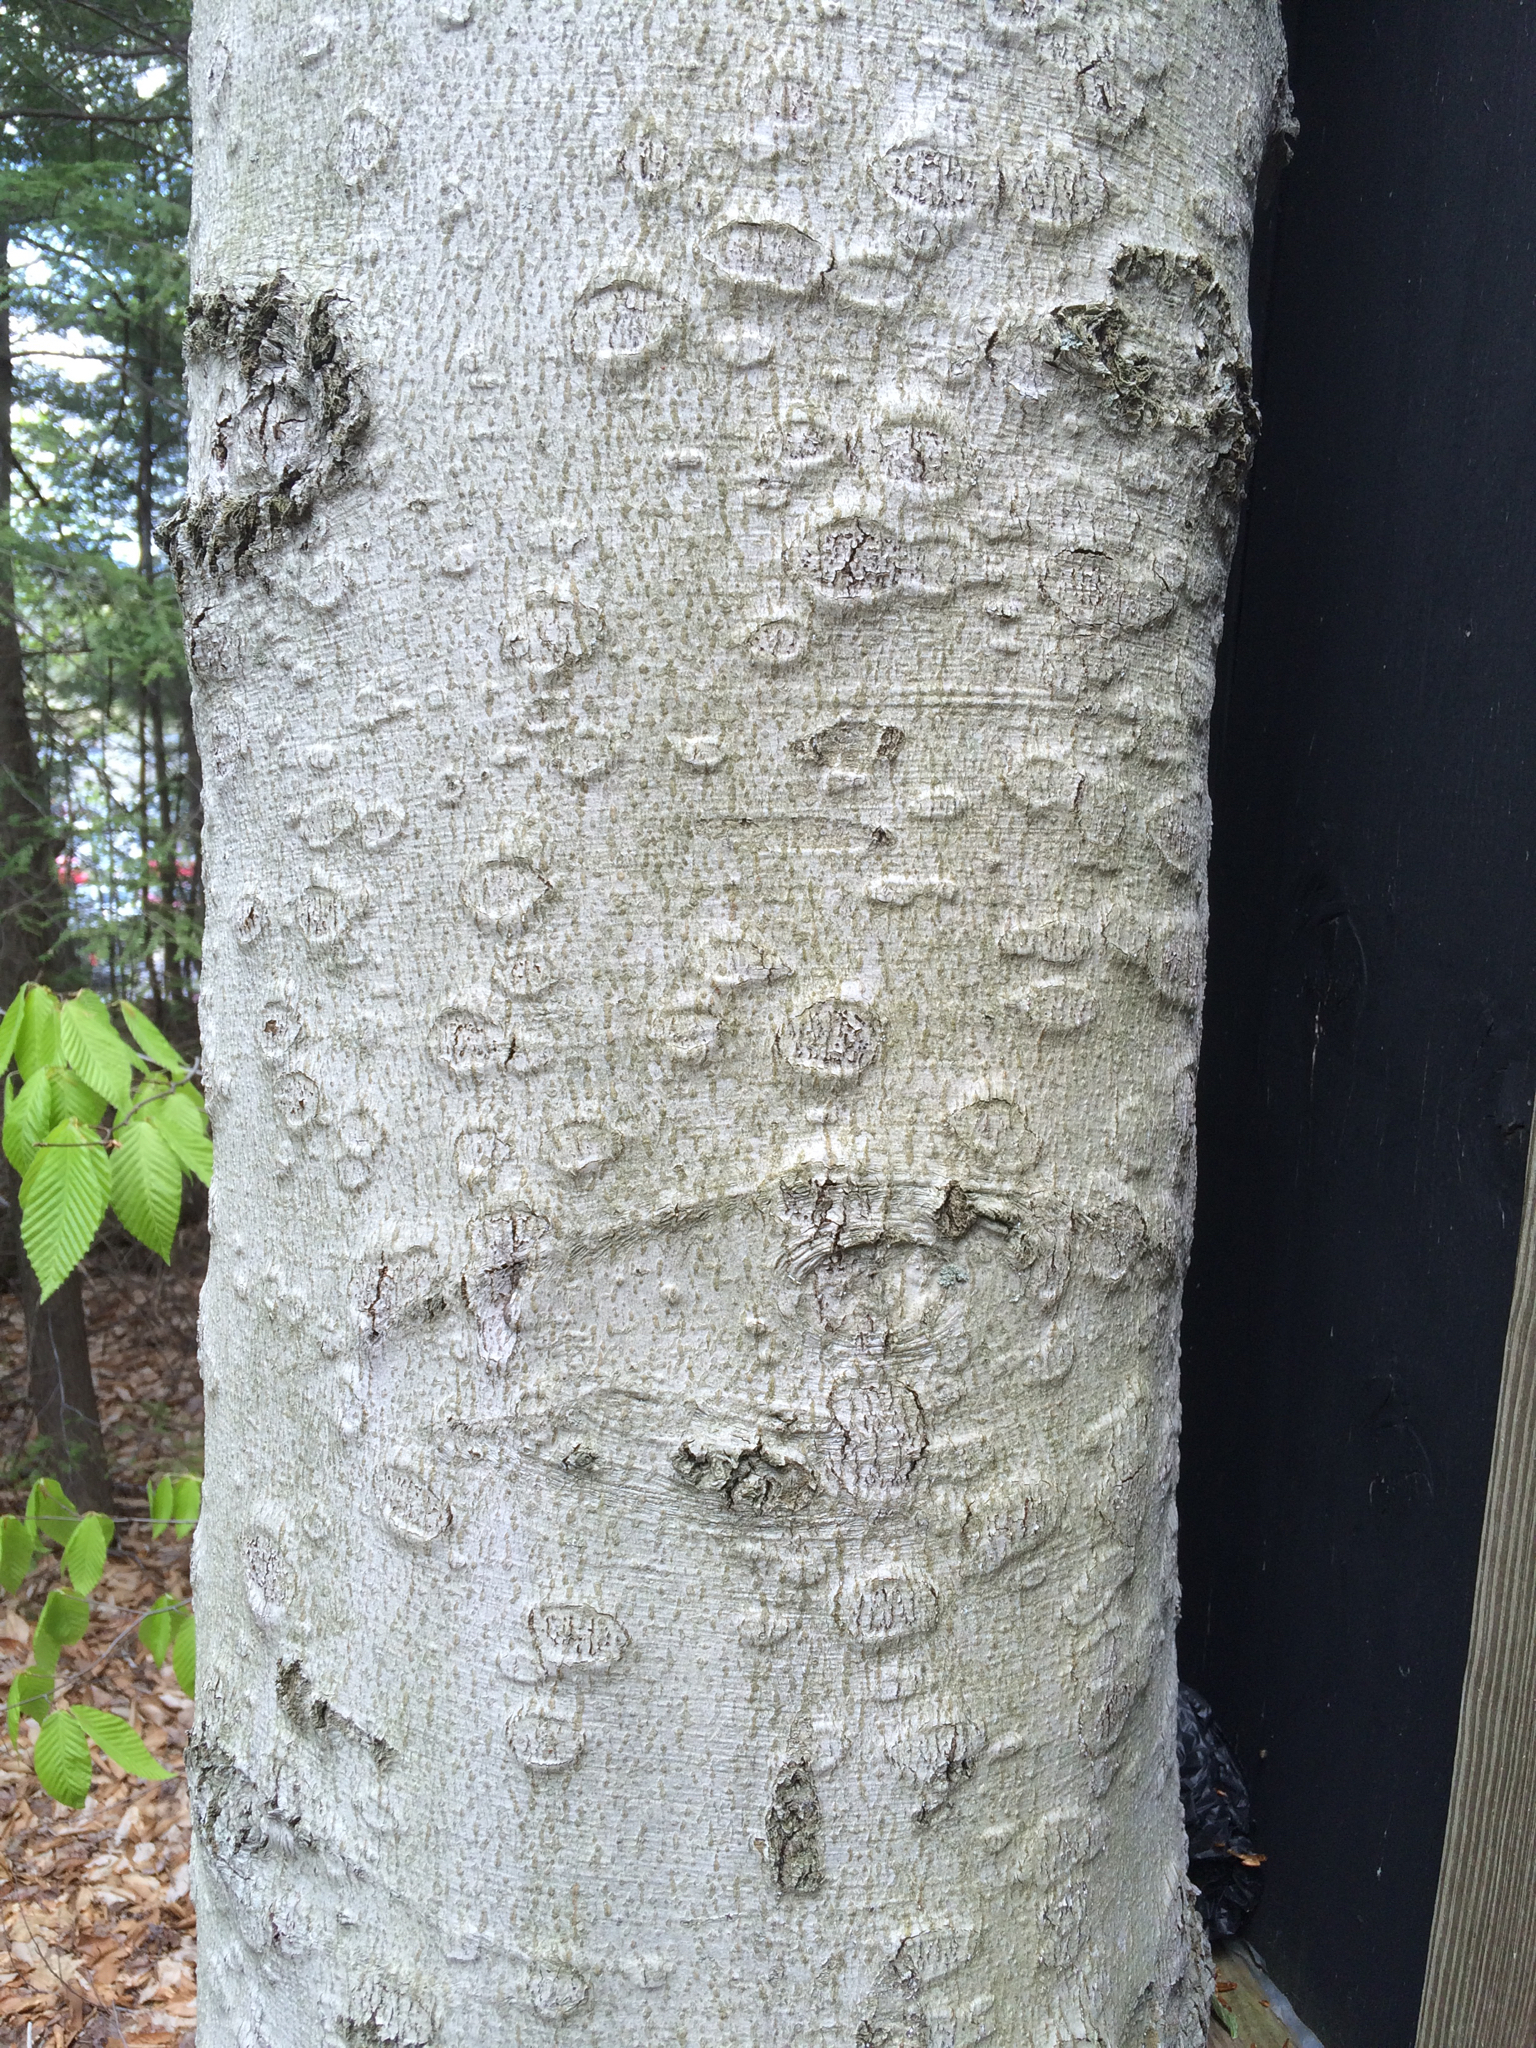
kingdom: Plantae
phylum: Tracheophyta
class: Magnoliopsida
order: Fagales
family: Fagaceae
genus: Fagus
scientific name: Fagus grandifolia
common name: American beech
